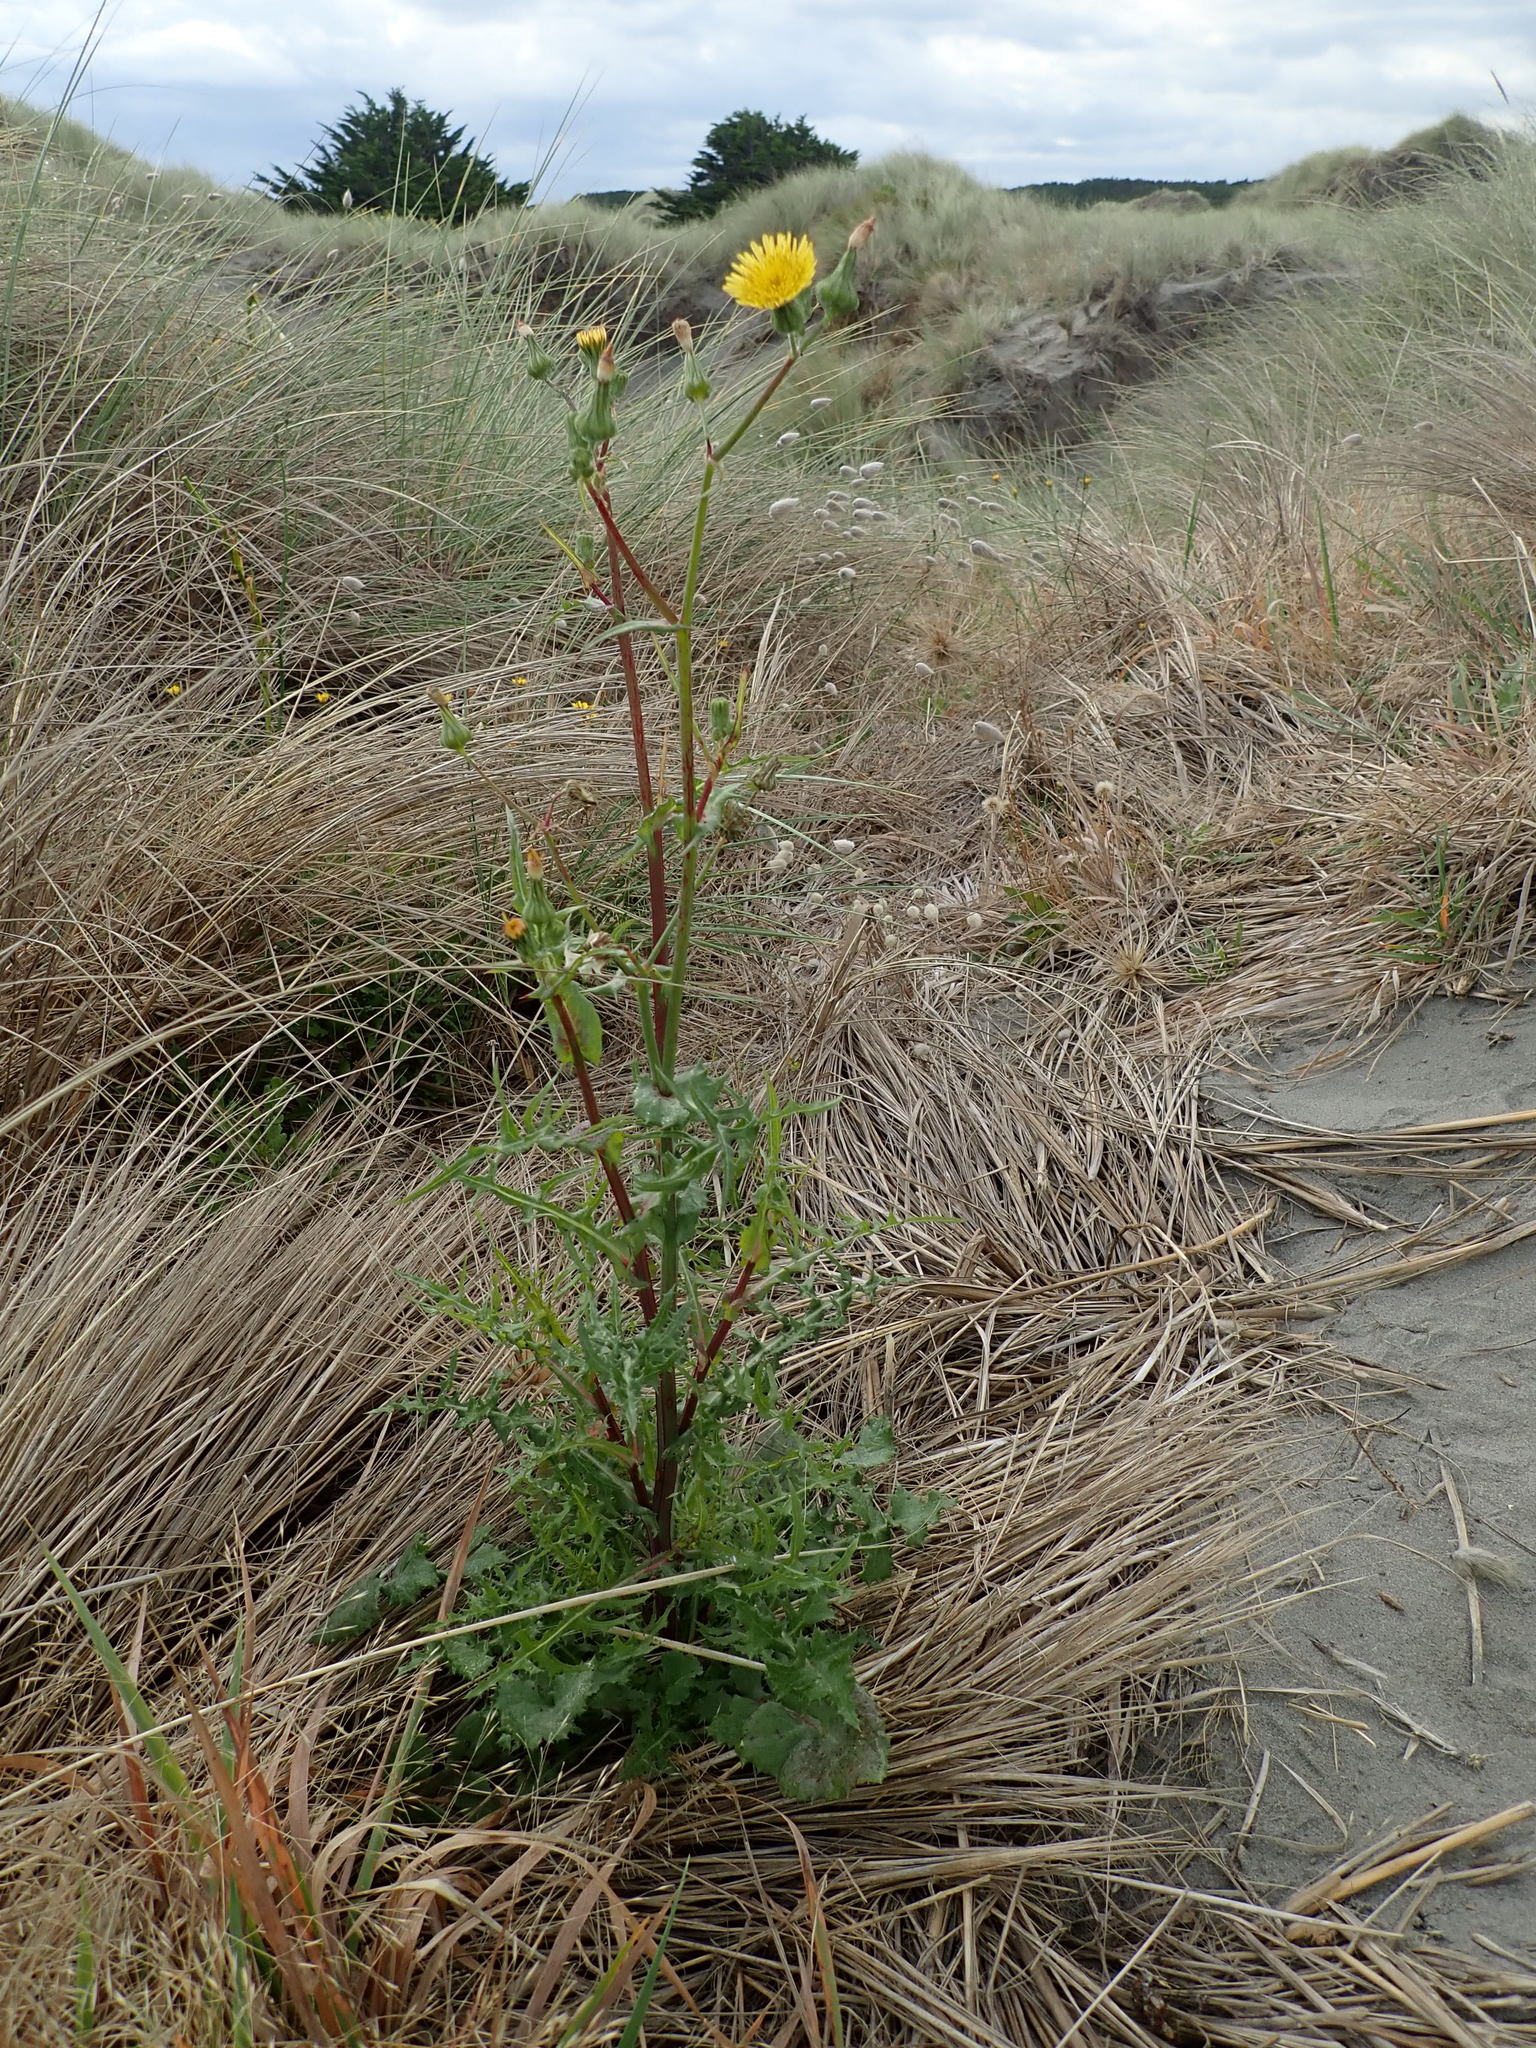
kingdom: Plantae
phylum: Tracheophyta
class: Magnoliopsida
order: Asterales
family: Asteraceae
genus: Sonchus
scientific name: Sonchus oleraceus
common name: Common sowthistle
